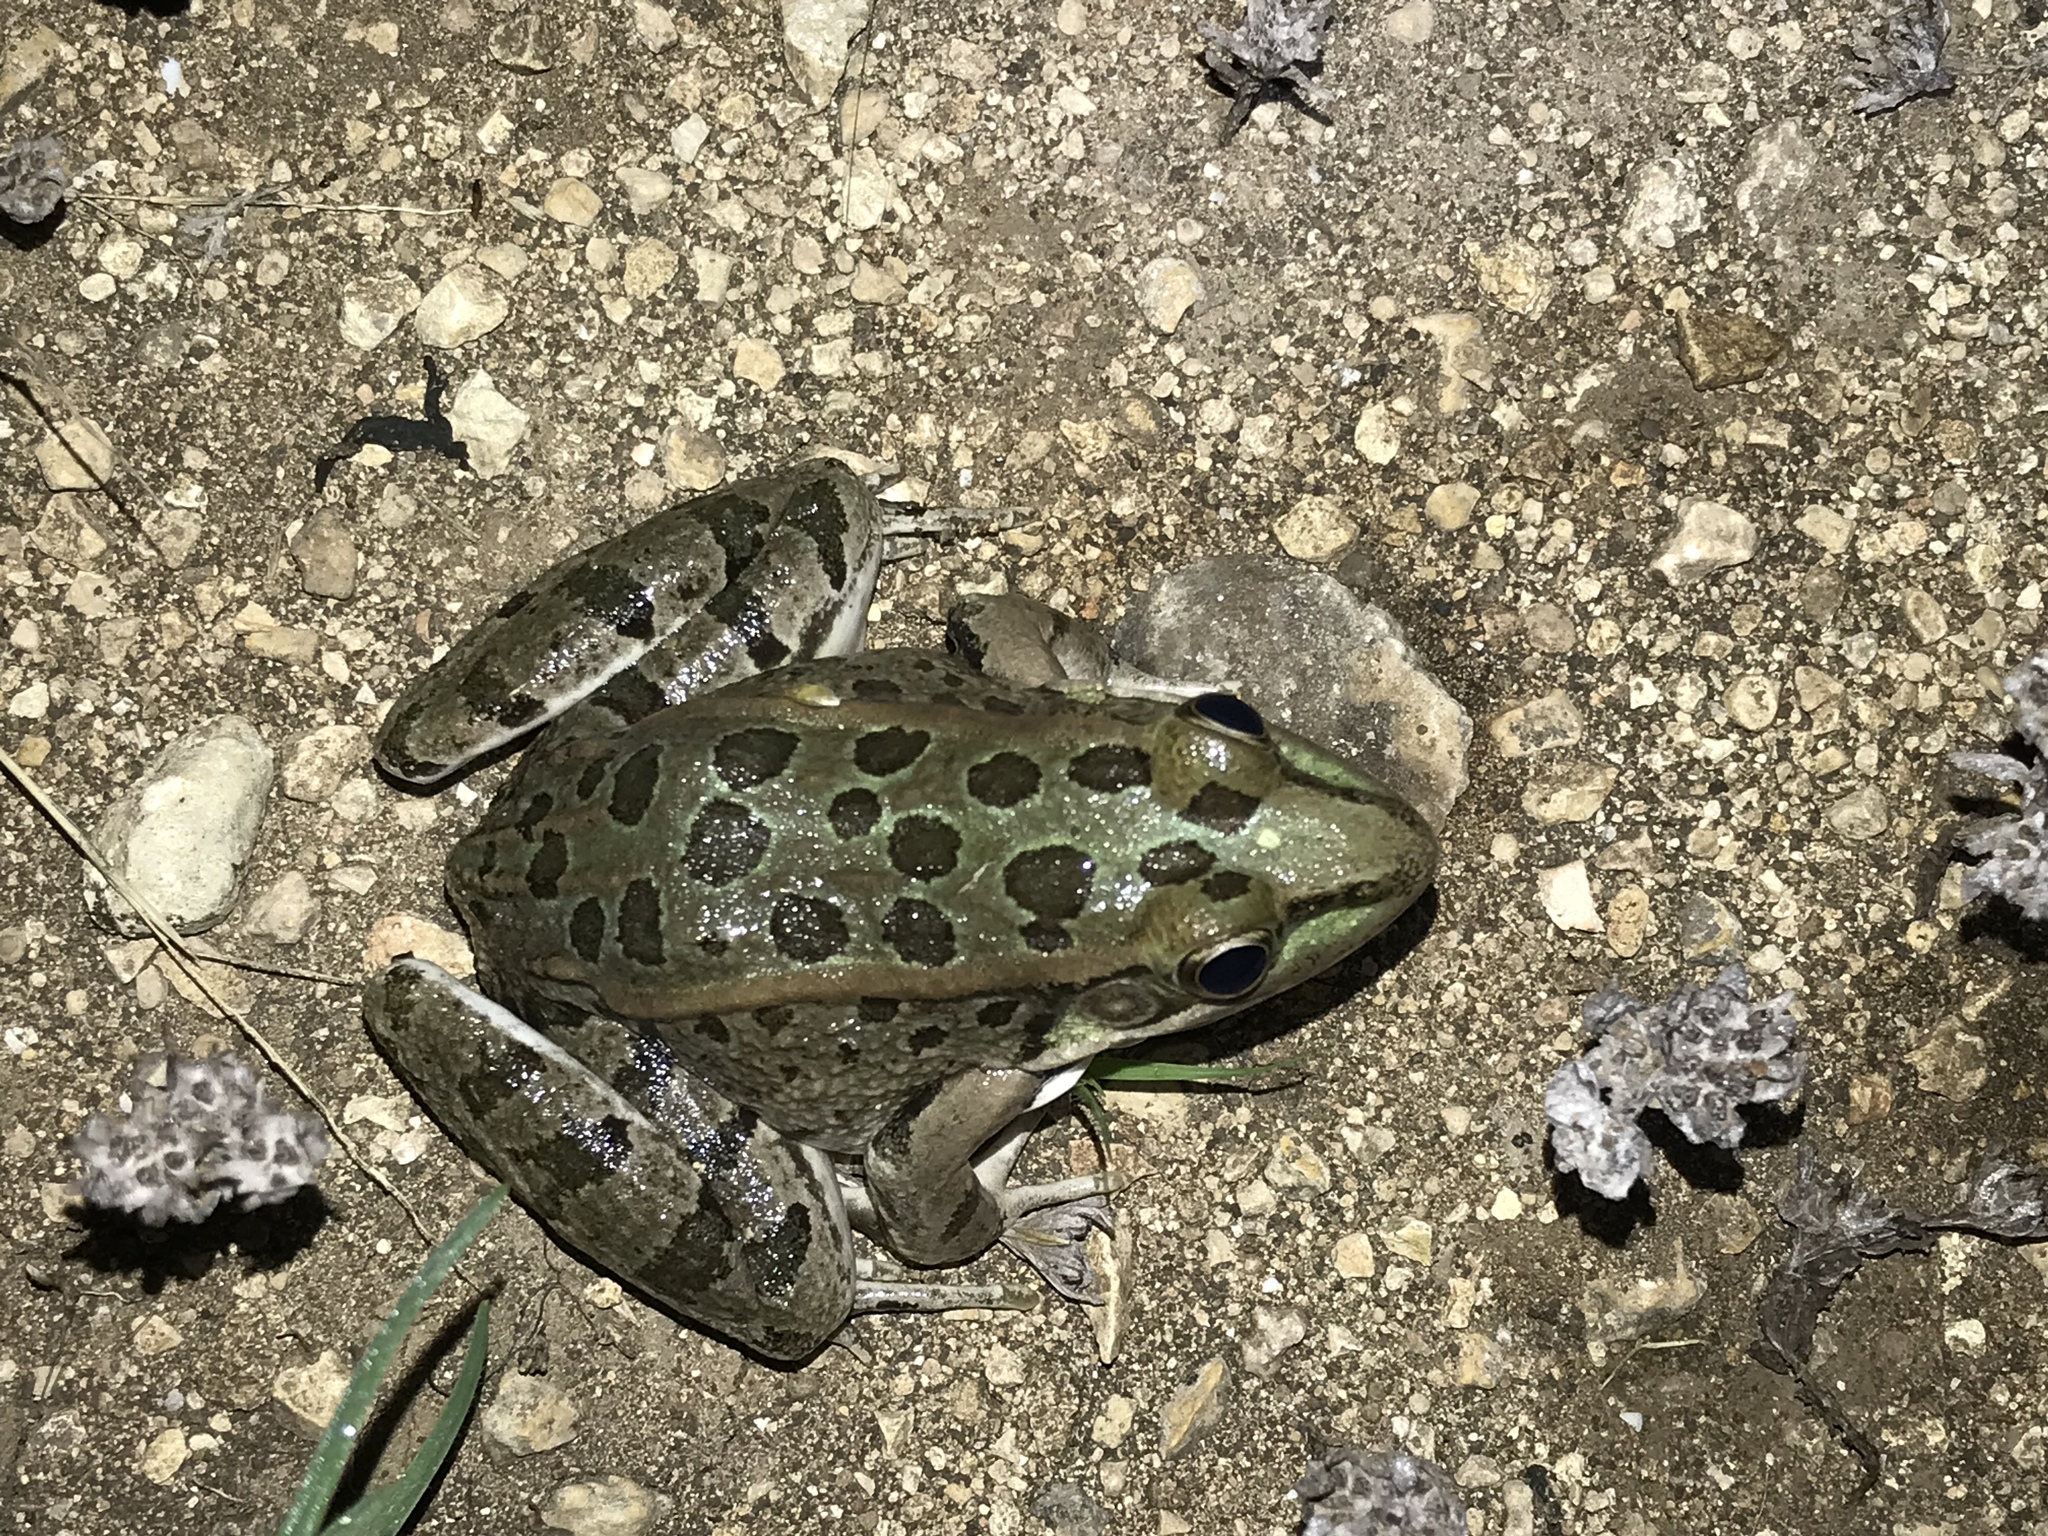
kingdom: Animalia
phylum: Chordata
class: Amphibia
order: Anura
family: Ranidae
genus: Lithobates
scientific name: Lithobates berlandieri
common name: Rio grande leopard frog
